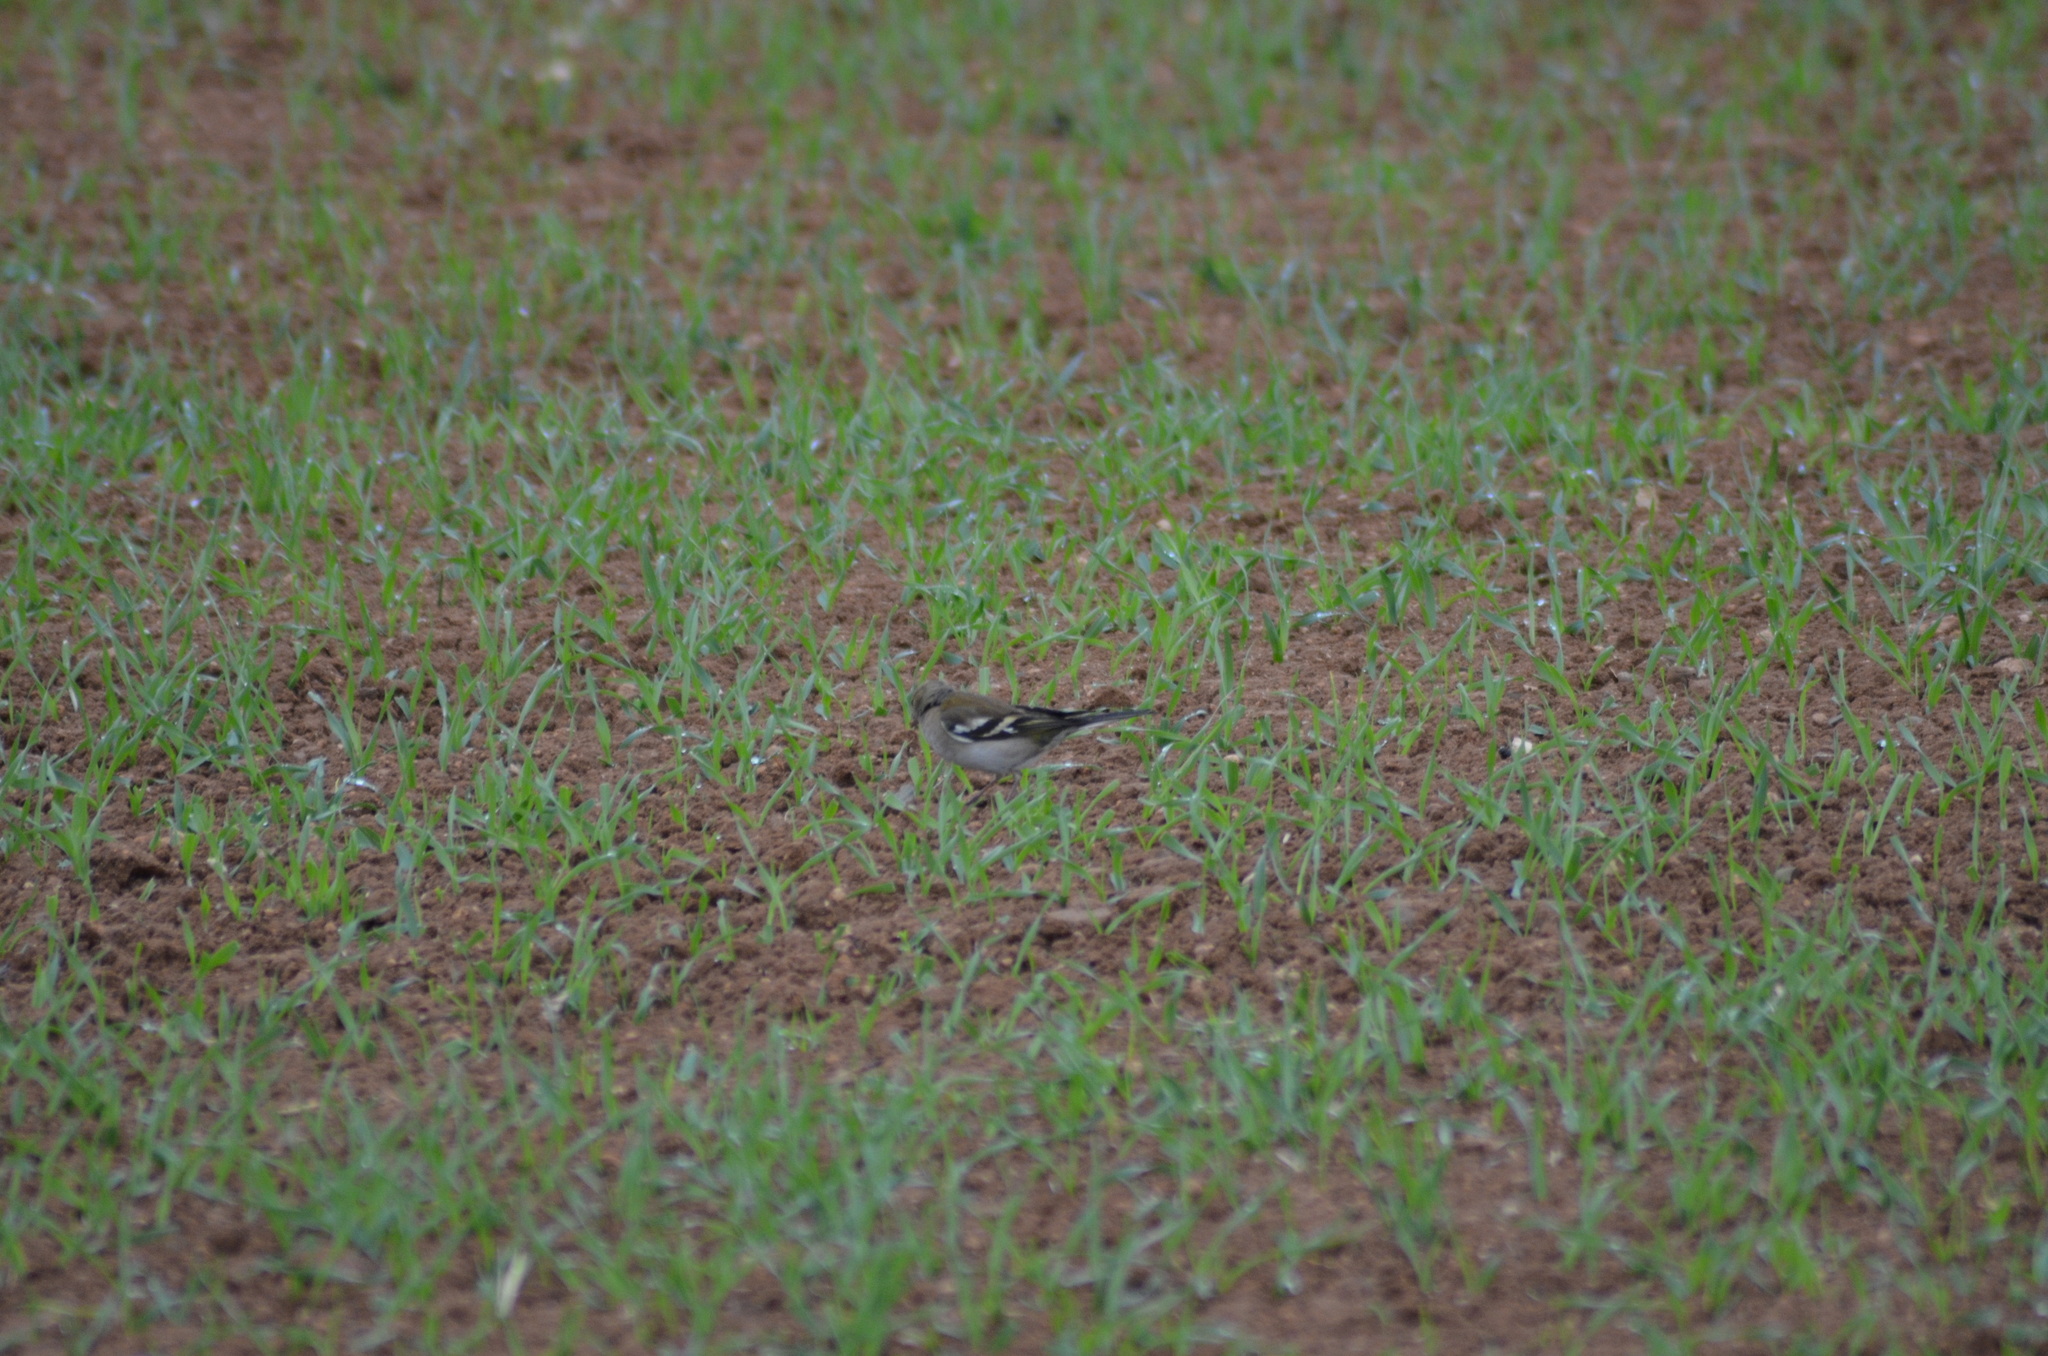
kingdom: Animalia
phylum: Chordata
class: Aves
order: Passeriformes
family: Fringillidae
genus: Fringilla
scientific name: Fringilla coelebs
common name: Common chaffinch
